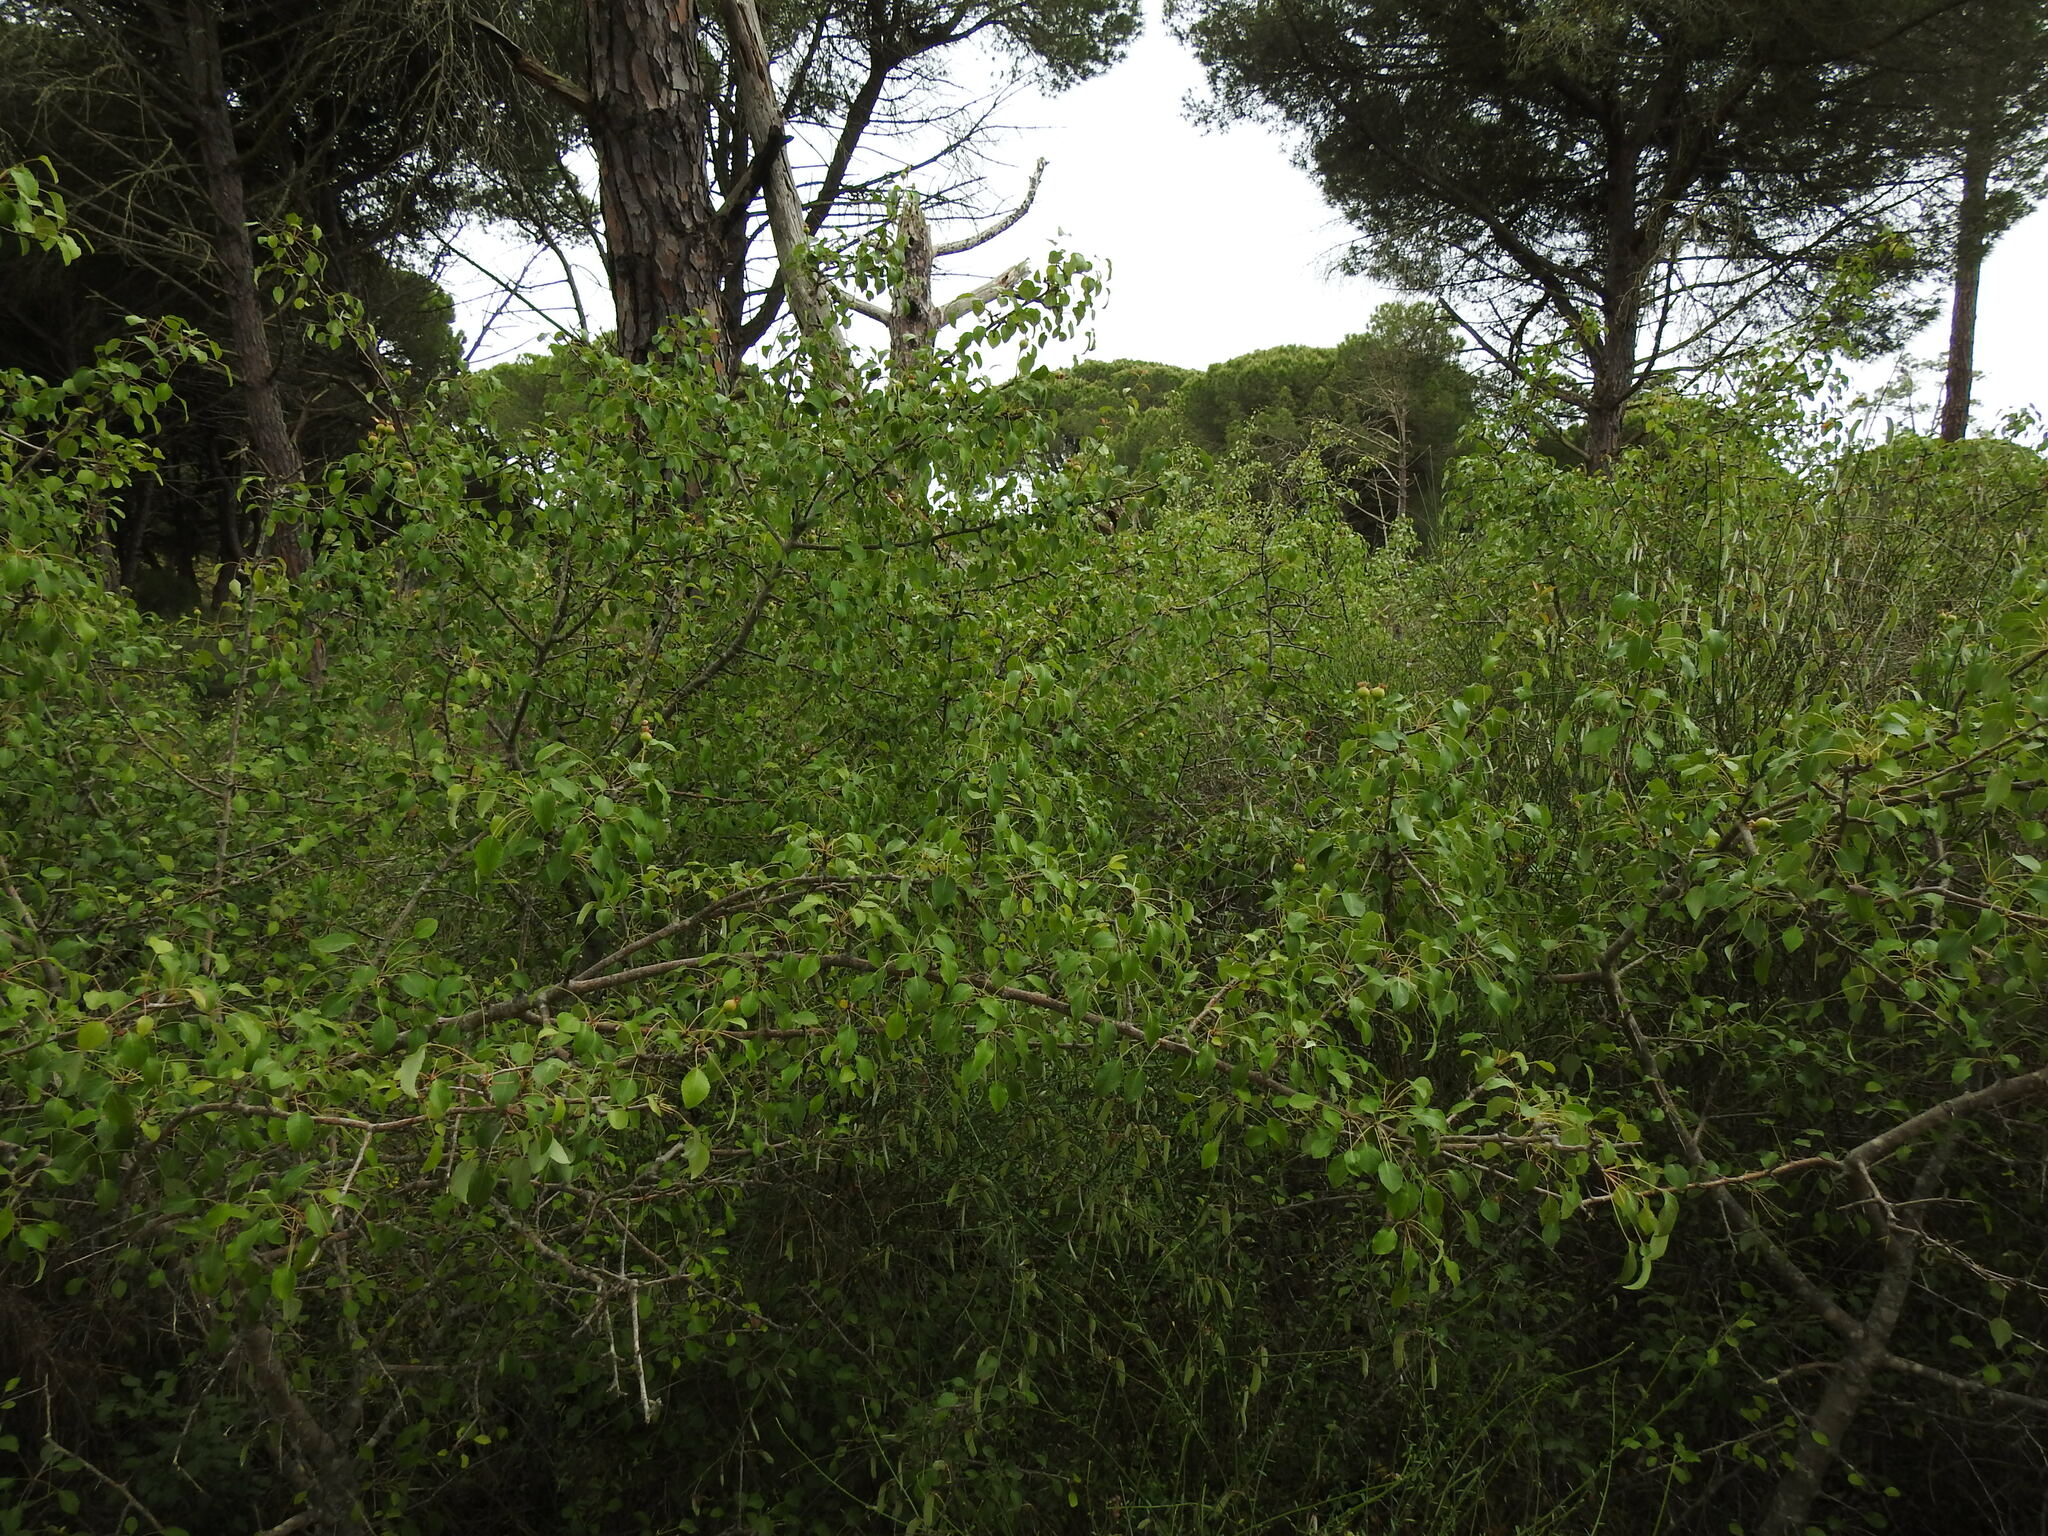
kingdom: Plantae
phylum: Tracheophyta
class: Magnoliopsida
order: Rosales
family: Rosaceae
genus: Pyrus
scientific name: Pyrus bourgaeana
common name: Iberian pear
